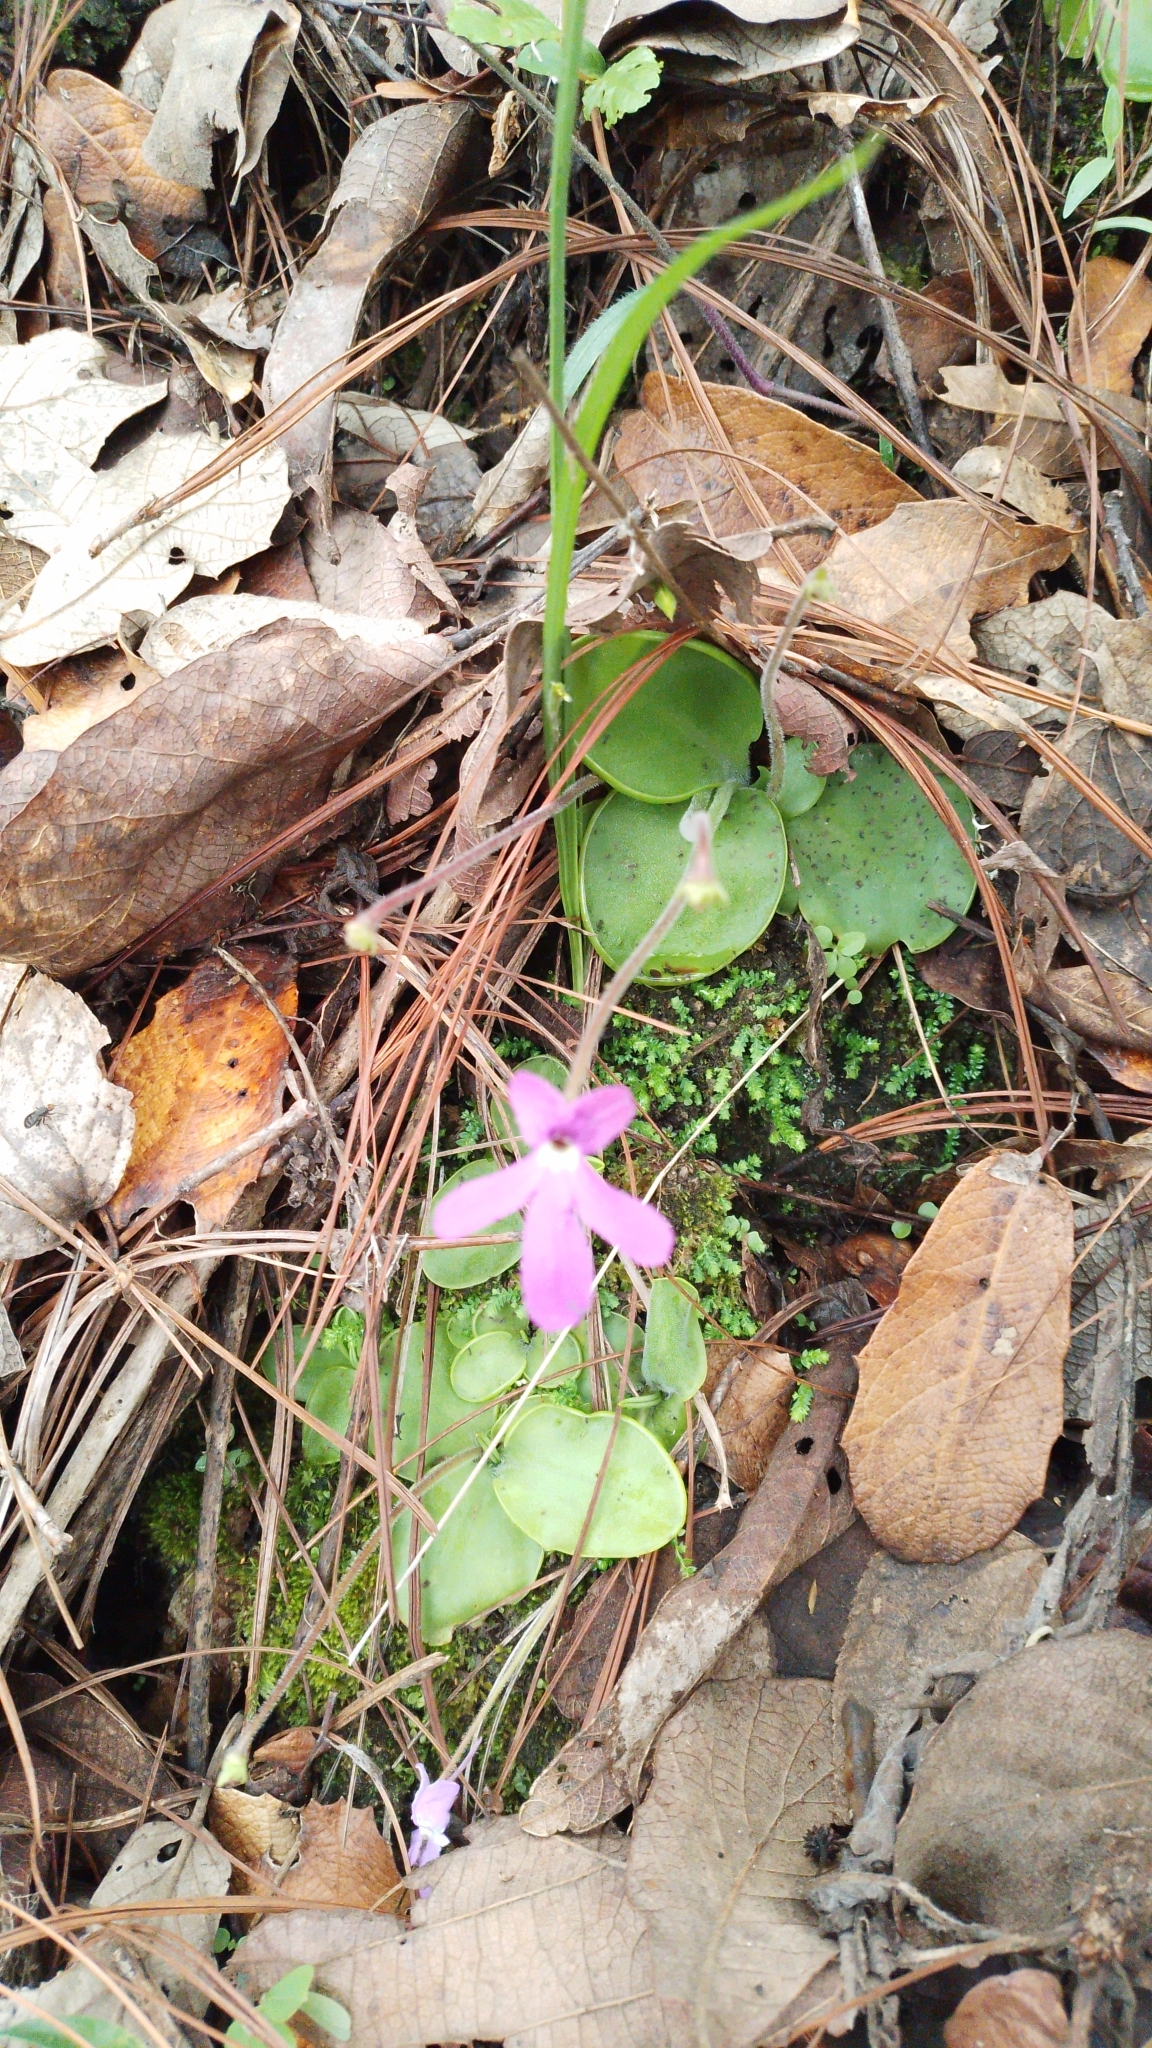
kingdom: Plantae
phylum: Tracheophyta
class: Magnoliopsida
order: Lamiales
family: Lentibulariaceae
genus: Pinguicula
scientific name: Pinguicula oblongiloba
